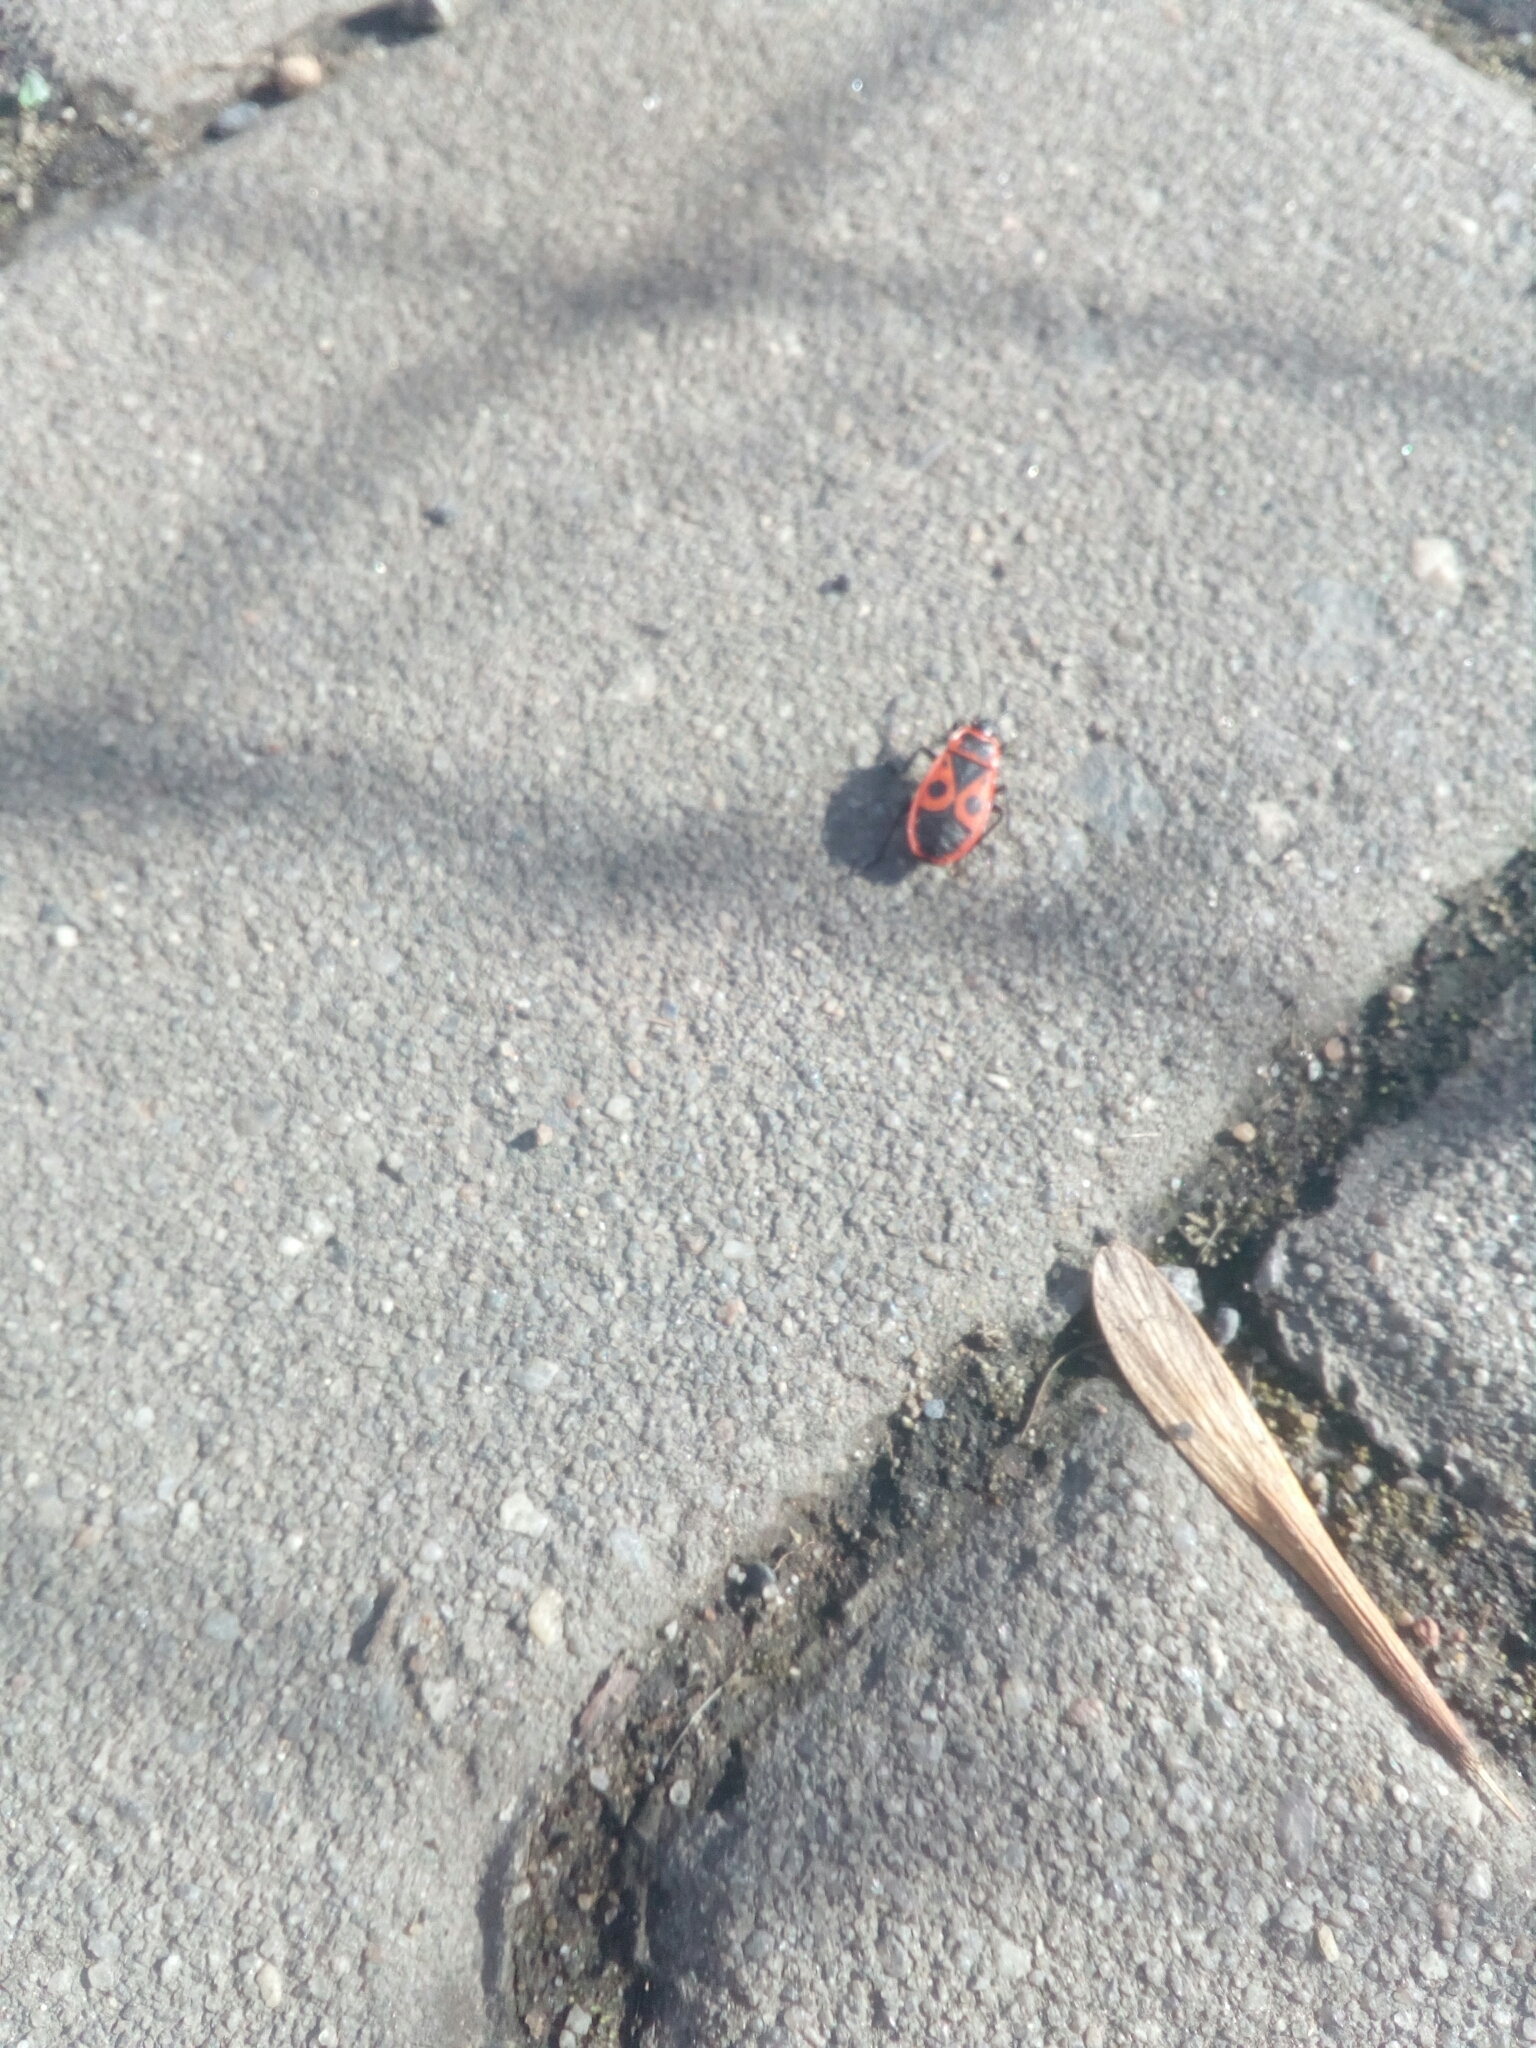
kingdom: Animalia
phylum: Arthropoda
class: Insecta
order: Hemiptera
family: Pyrrhocoridae
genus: Pyrrhocoris
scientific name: Pyrrhocoris apterus
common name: Firebug
